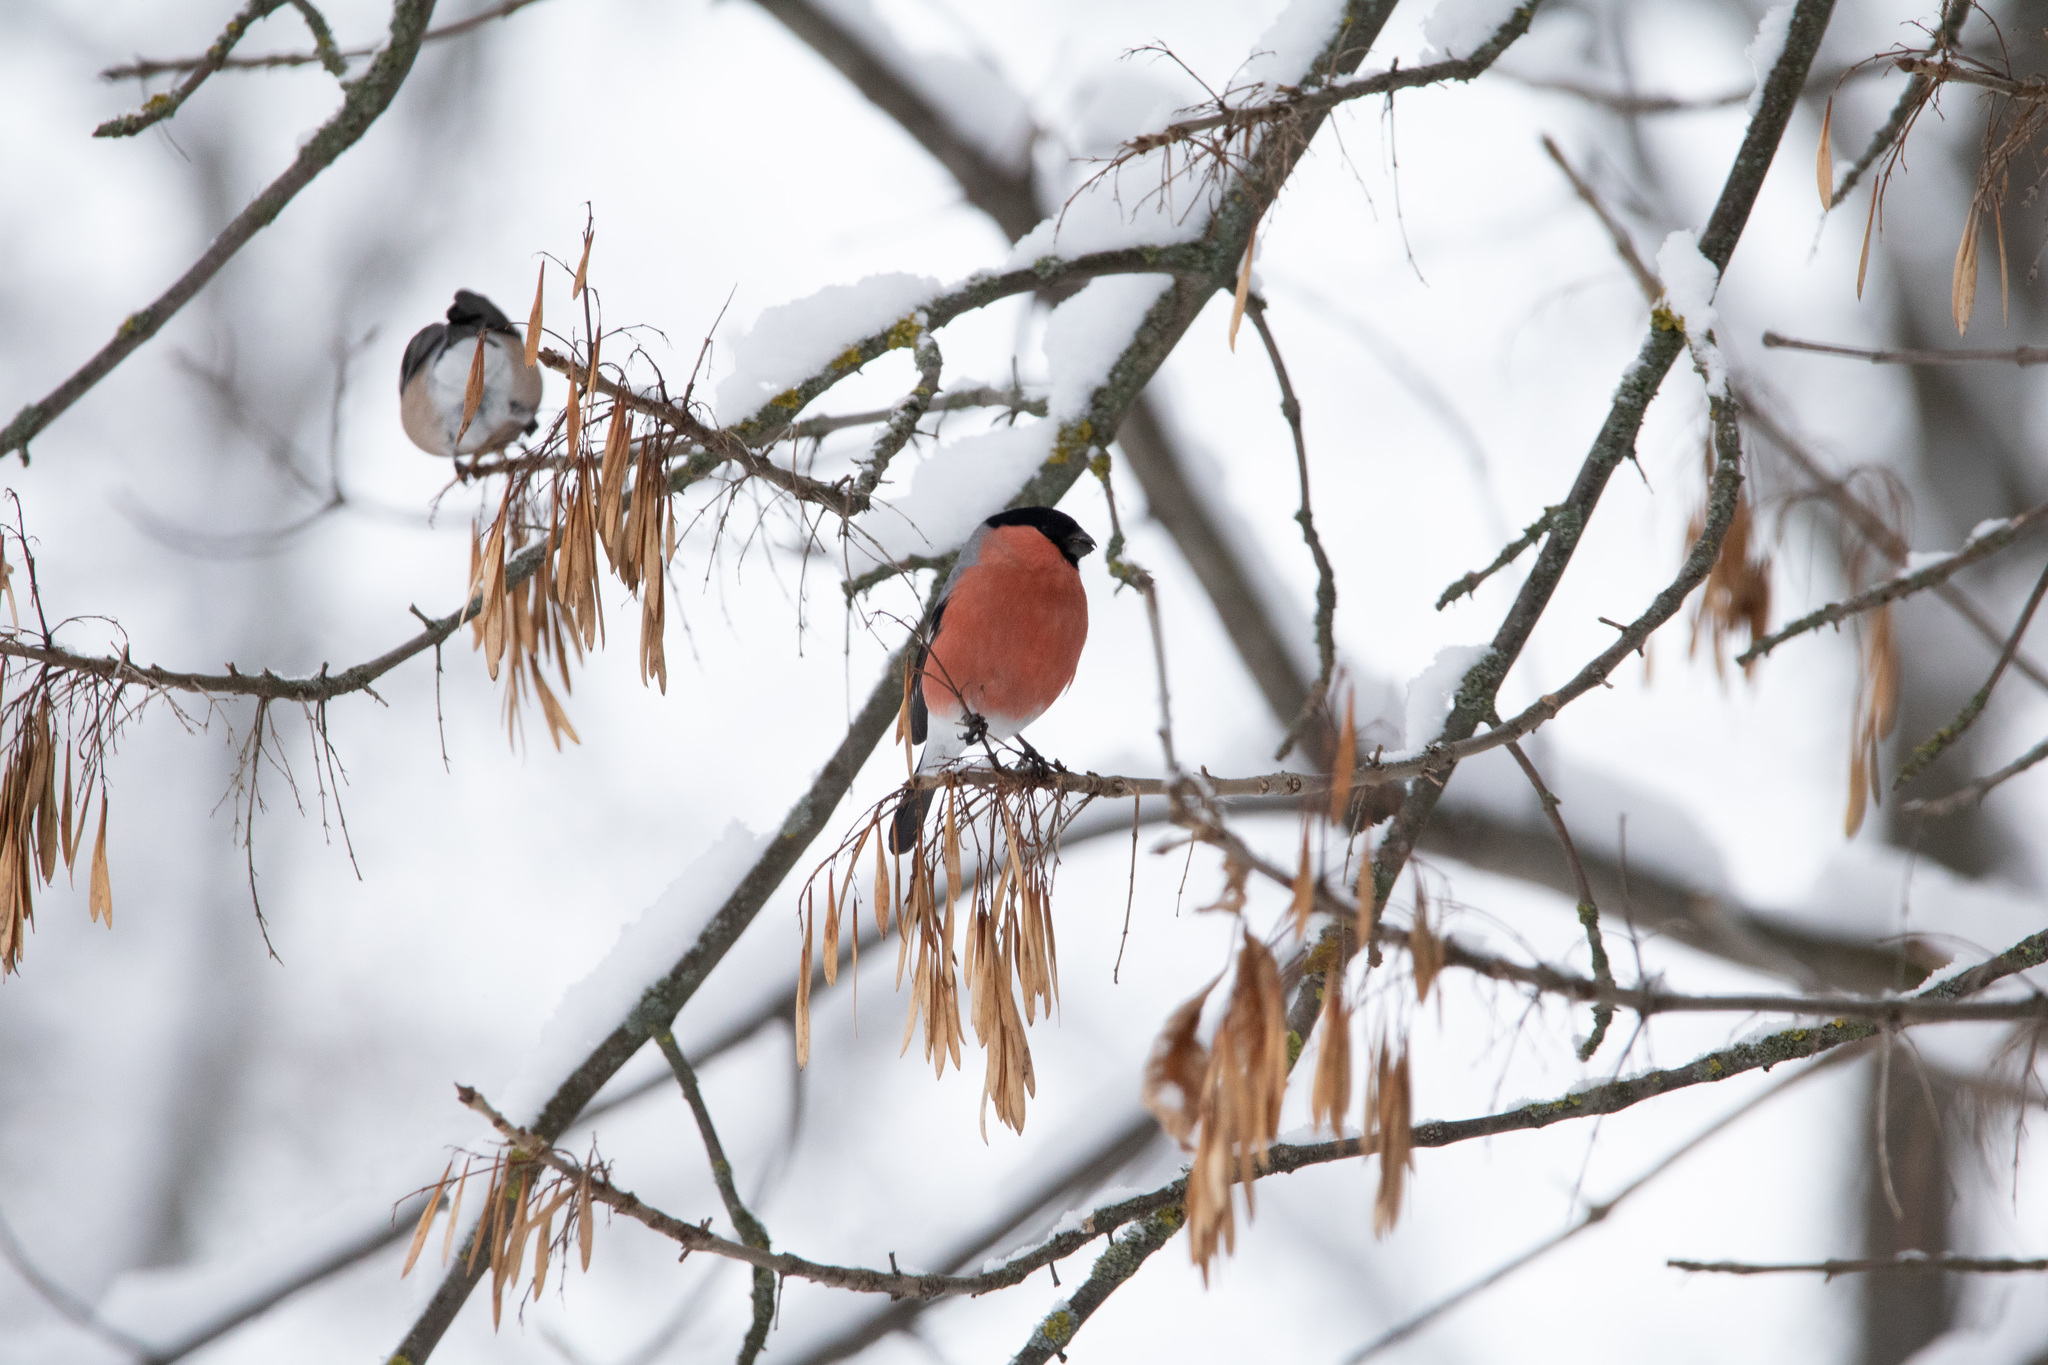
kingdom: Animalia
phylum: Chordata
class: Aves
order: Passeriformes
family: Fringillidae
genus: Pyrrhula
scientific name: Pyrrhula pyrrhula
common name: Eurasian bullfinch
